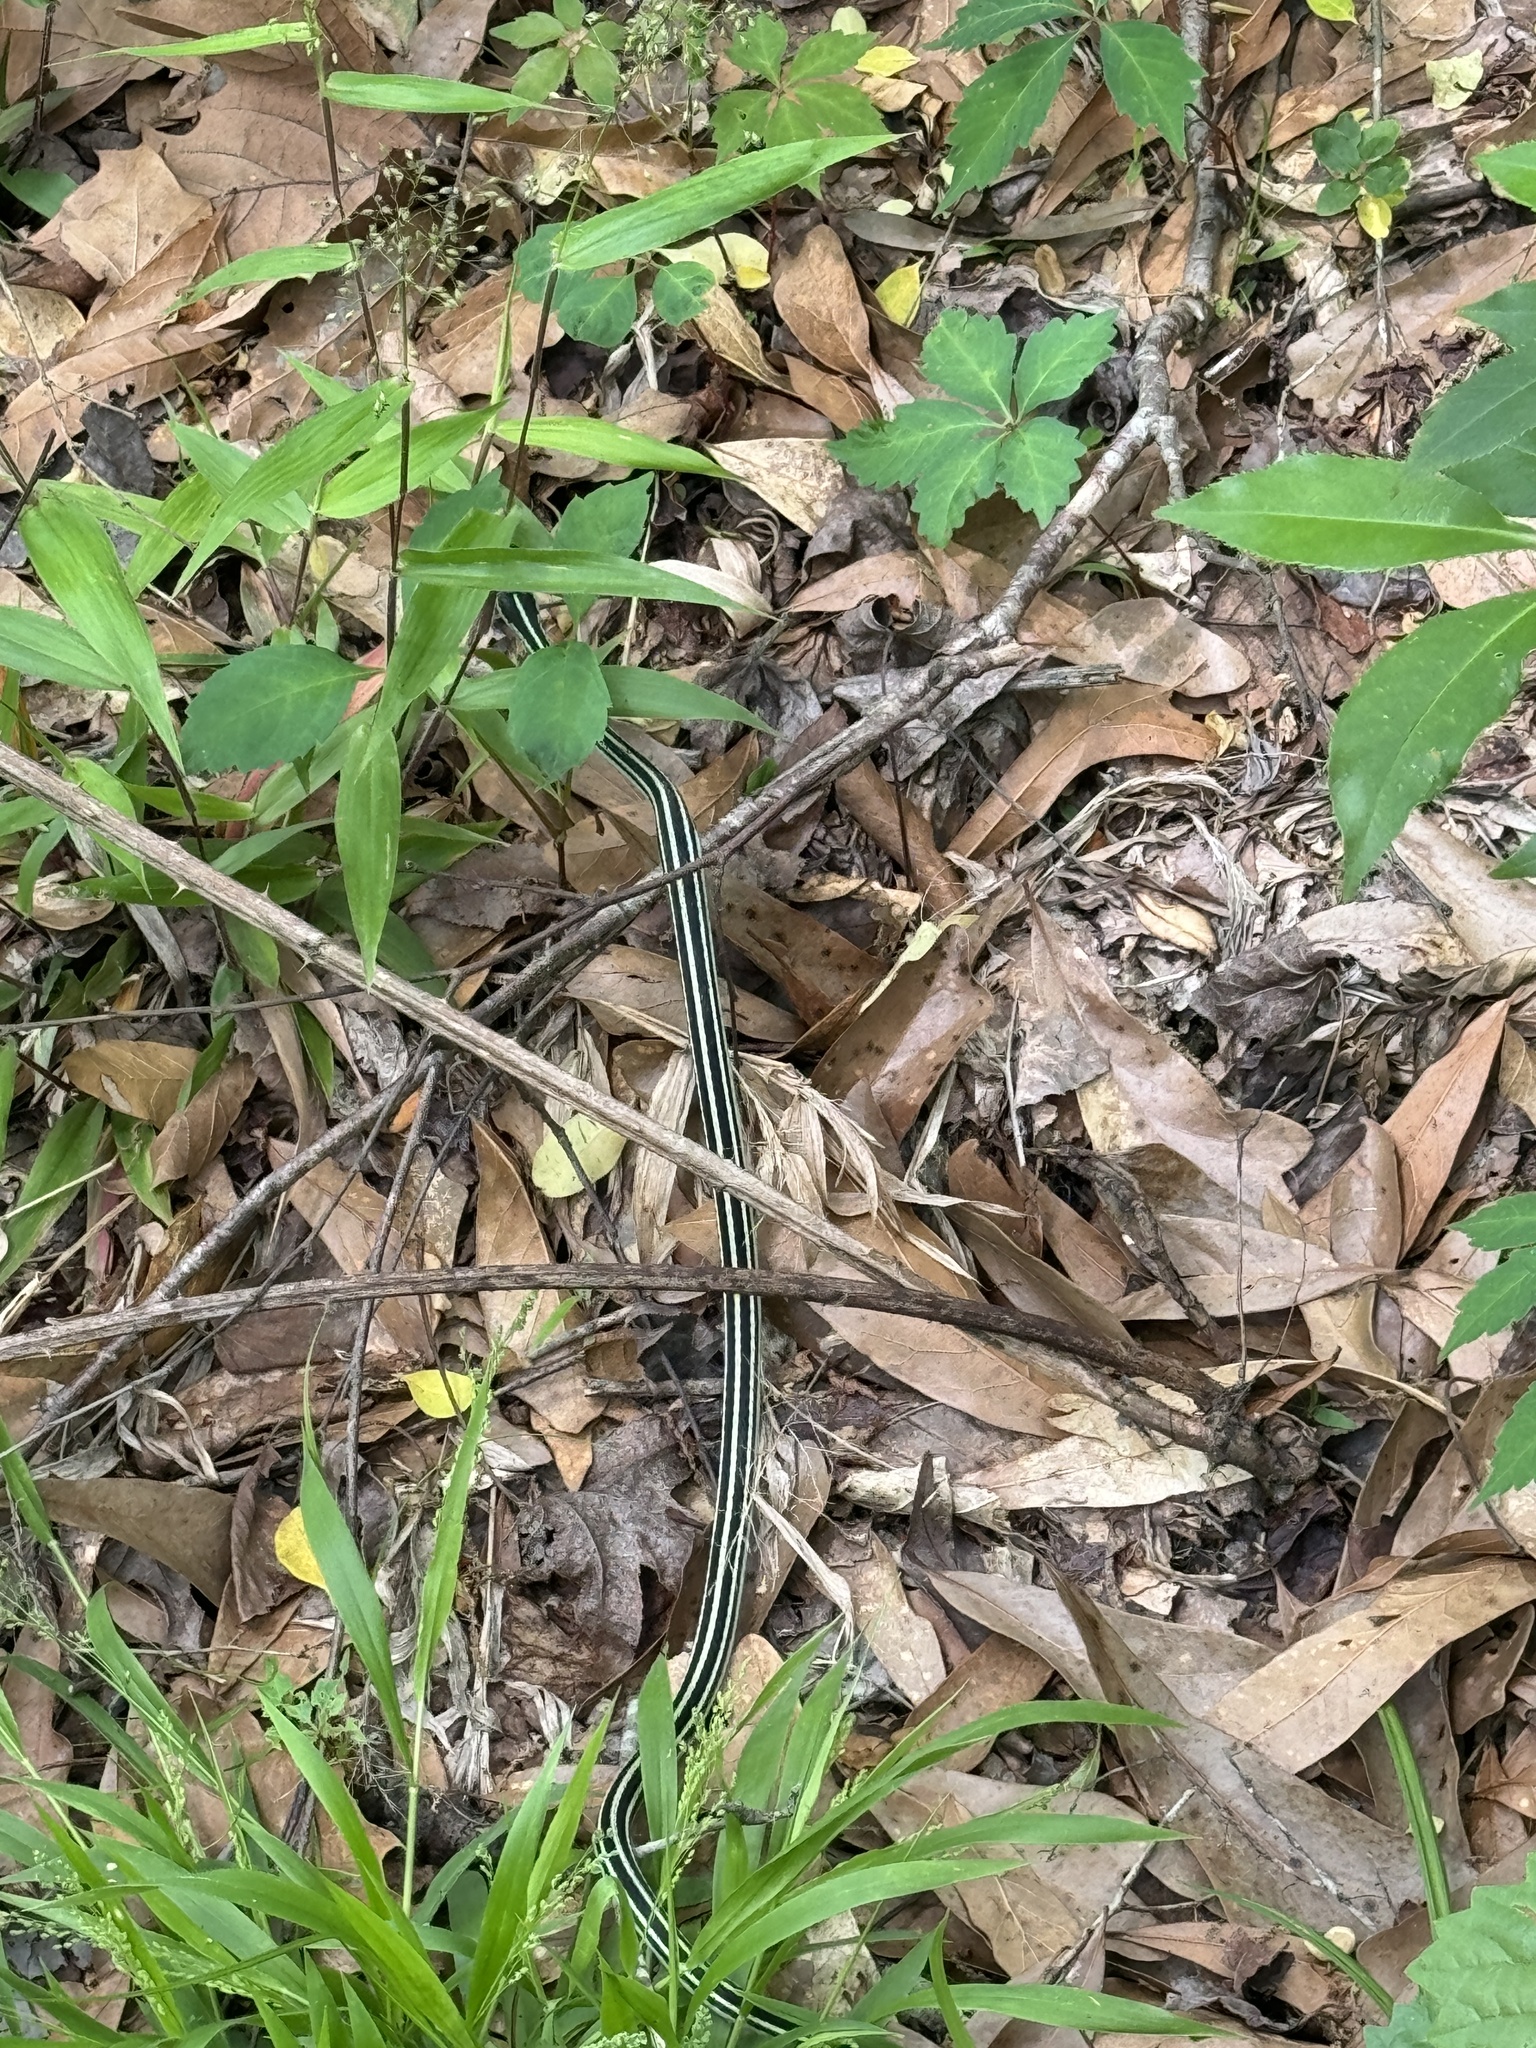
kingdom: Animalia
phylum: Chordata
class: Squamata
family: Colubridae
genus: Thamnophis
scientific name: Thamnophis proximus
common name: Western ribbon snake
